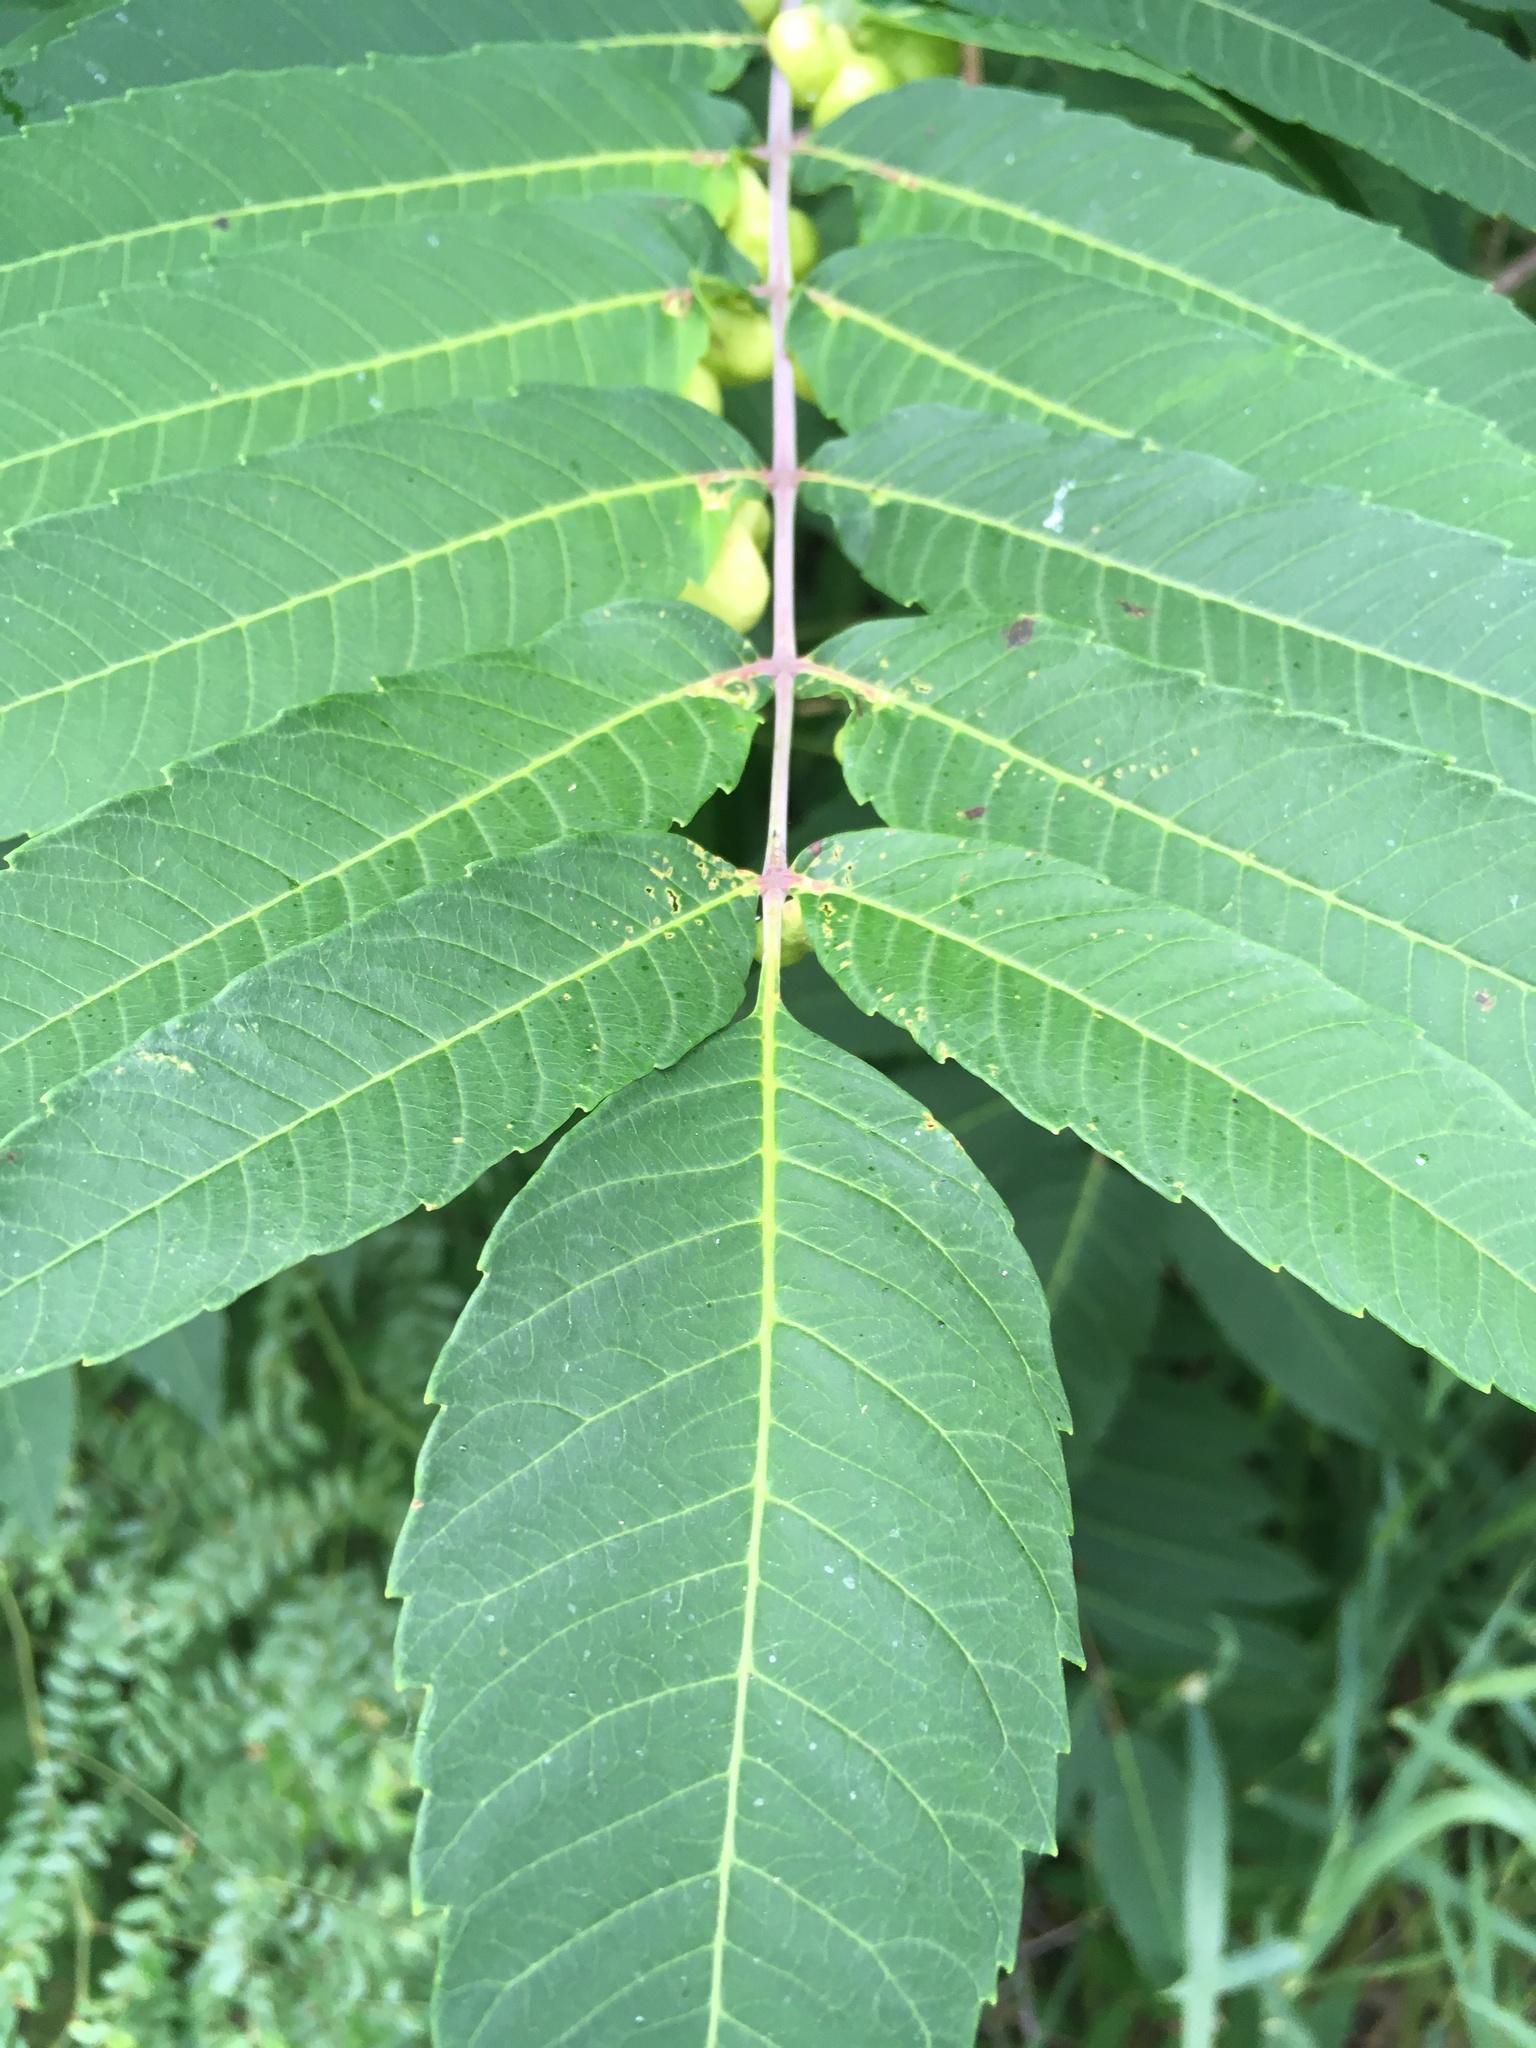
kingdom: Plantae
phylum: Tracheophyta
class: Magnoliopsida
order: Sapindales
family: Anacardiaceae
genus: Rhus
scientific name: Rhus glabra
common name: Scarlet sumac
